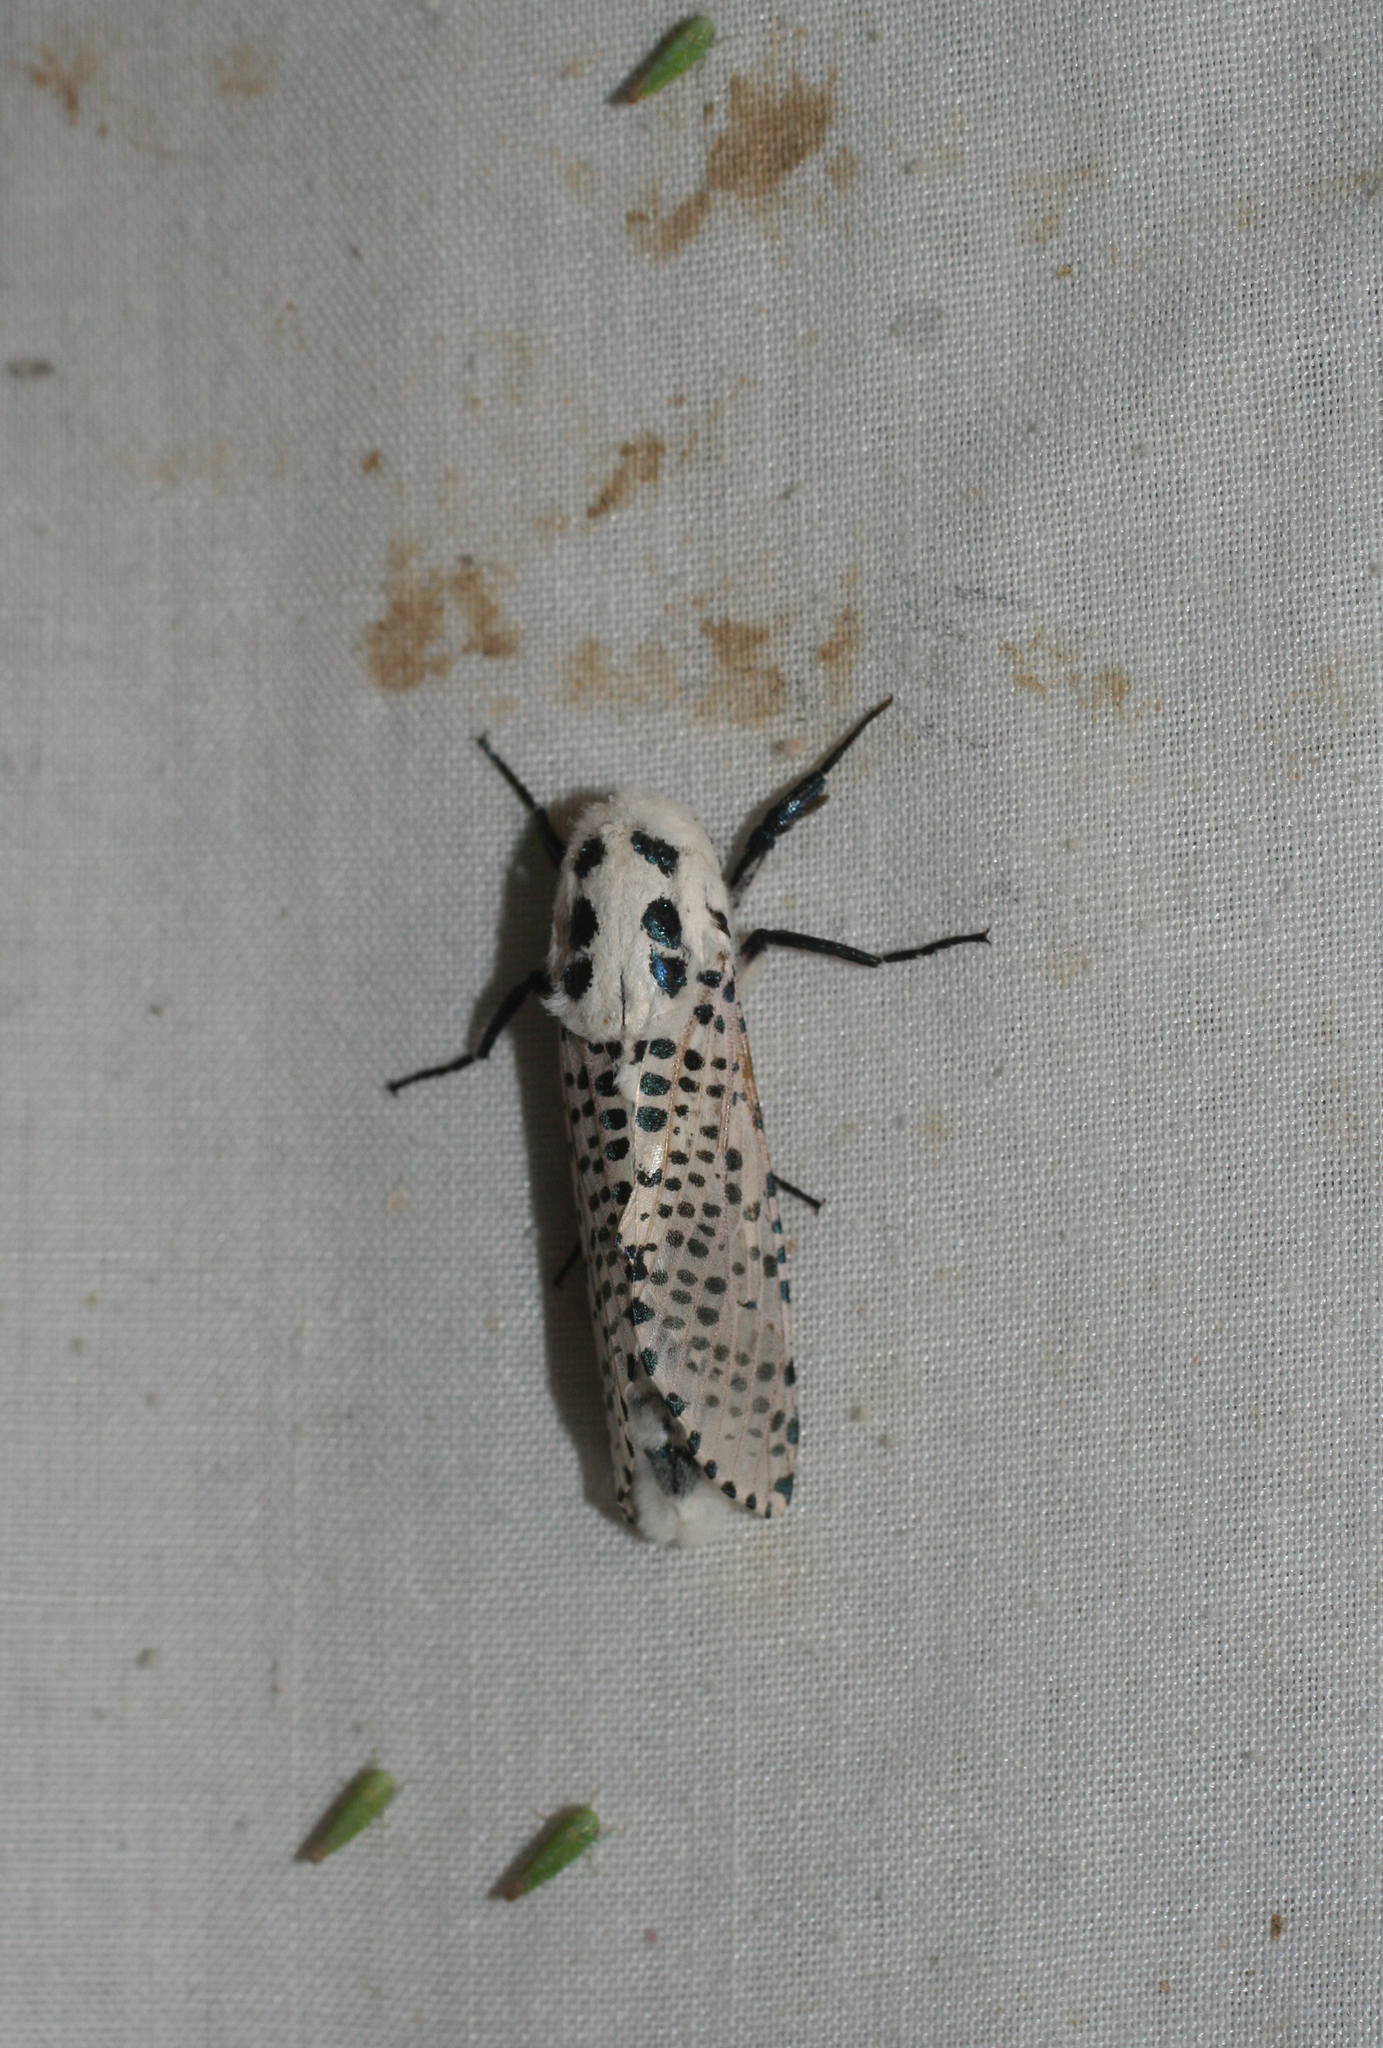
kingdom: Animalia
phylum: Arthropoda
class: Insecta
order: Lepidoptera
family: Cossidae
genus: Zeuzera
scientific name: Zeuzera pyrina
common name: Leopard moth
